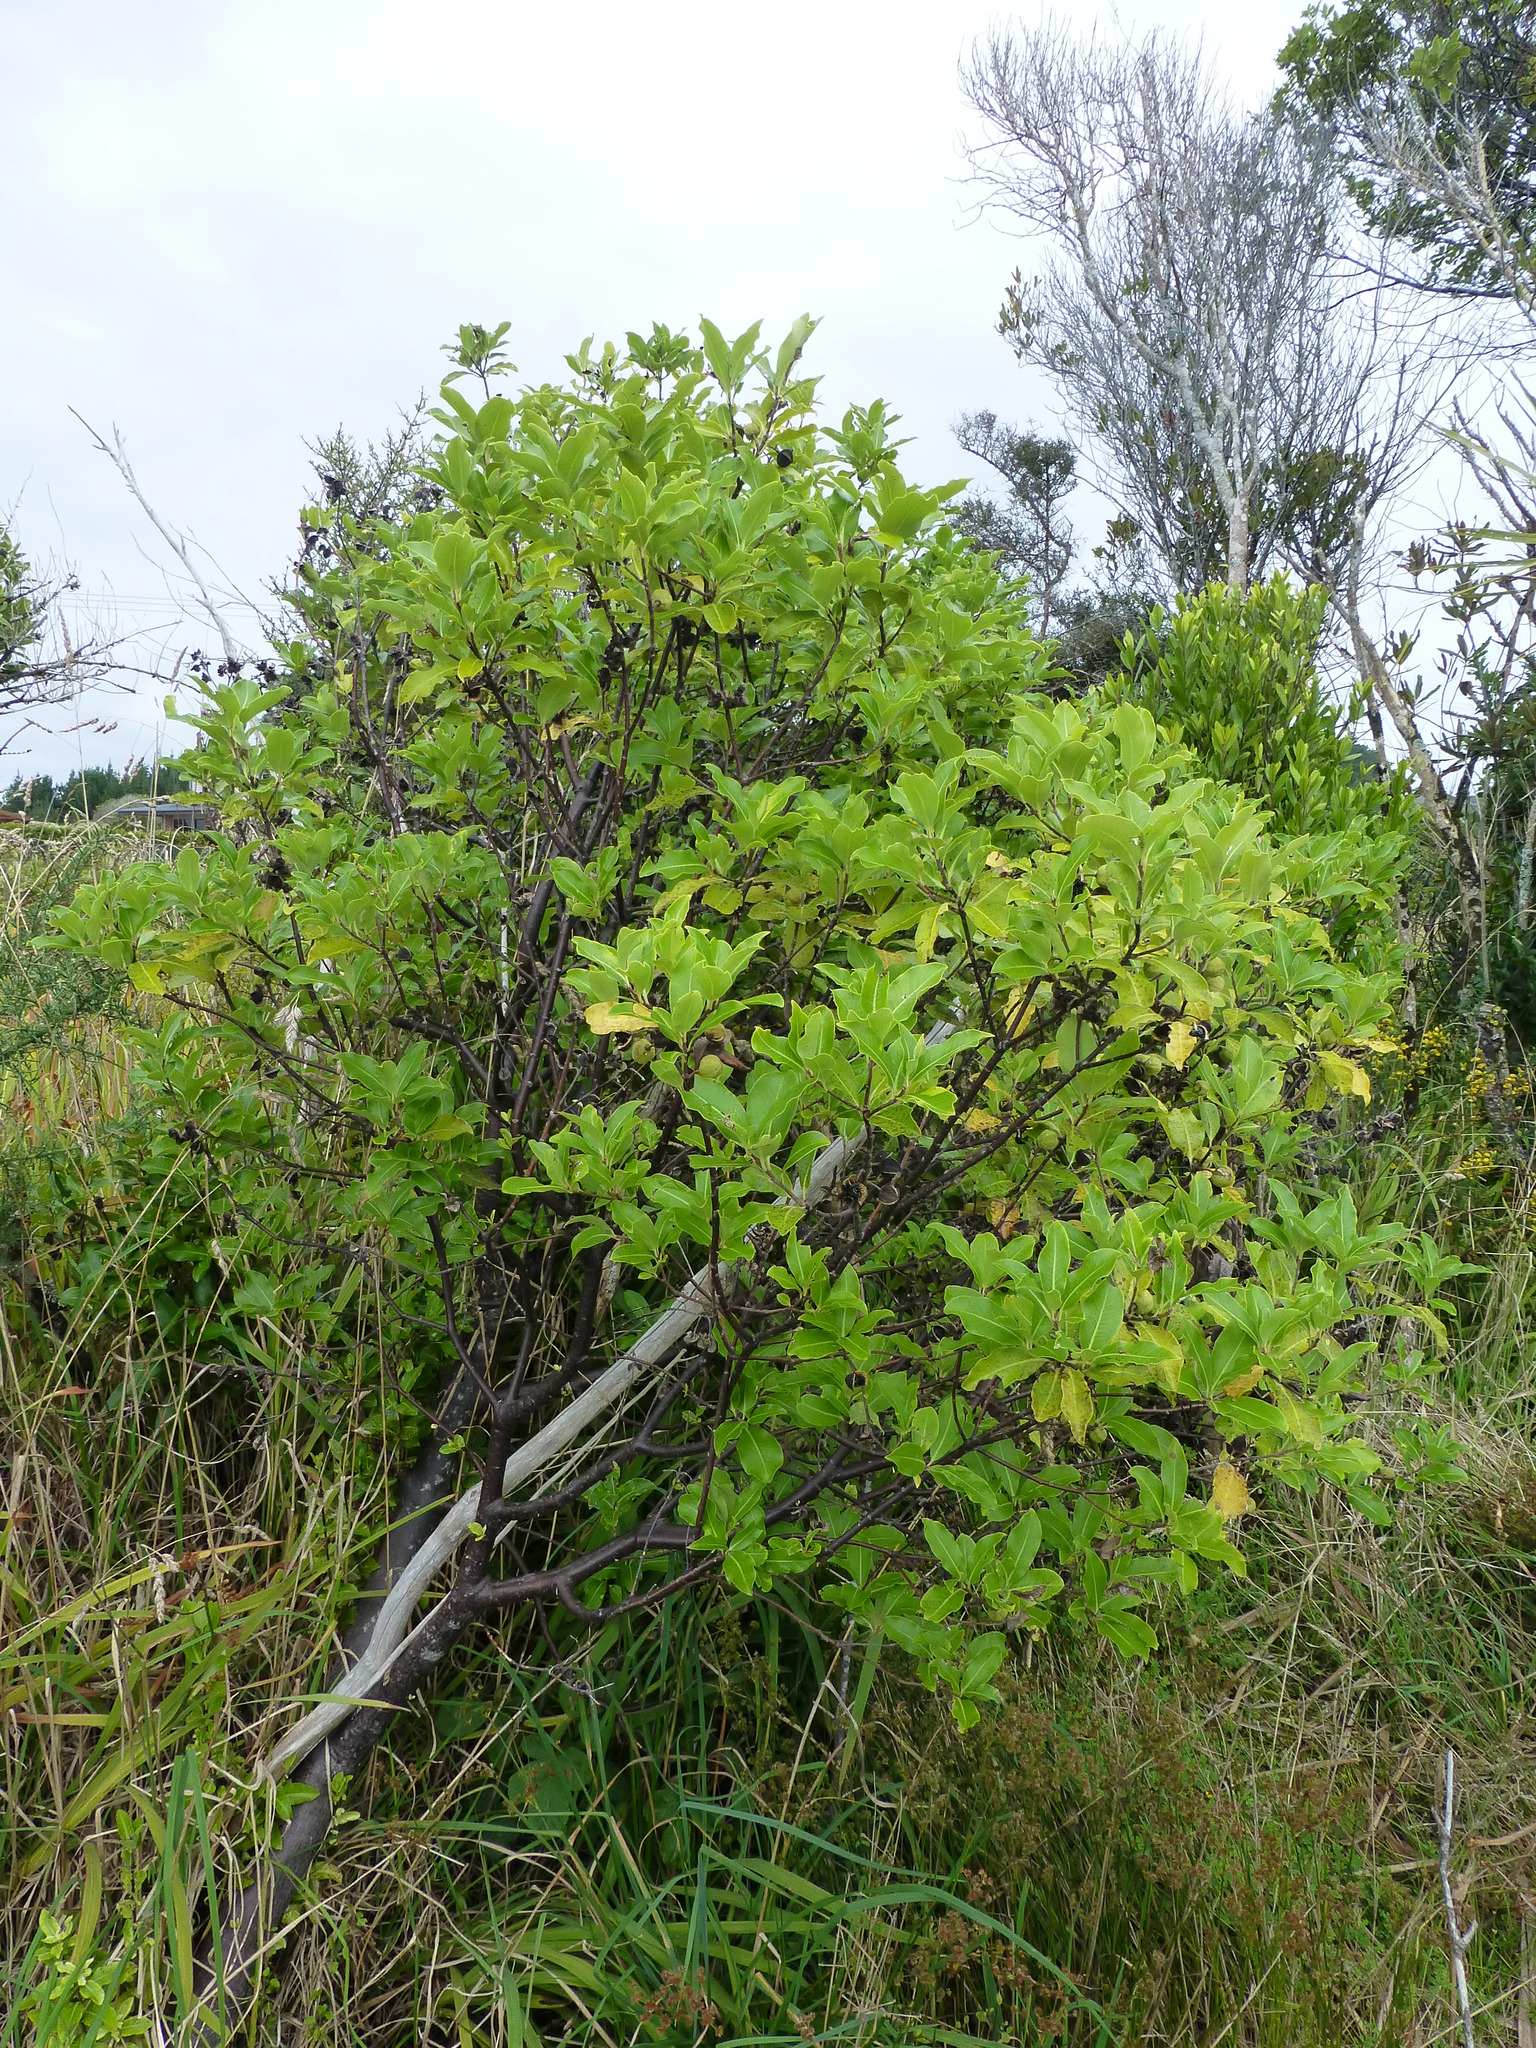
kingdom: Plantae
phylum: Tracheophyta
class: Magnoliopsida
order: Apiales
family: Pittosporaceae
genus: Pittosporum
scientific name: Pittosporum colensoi
